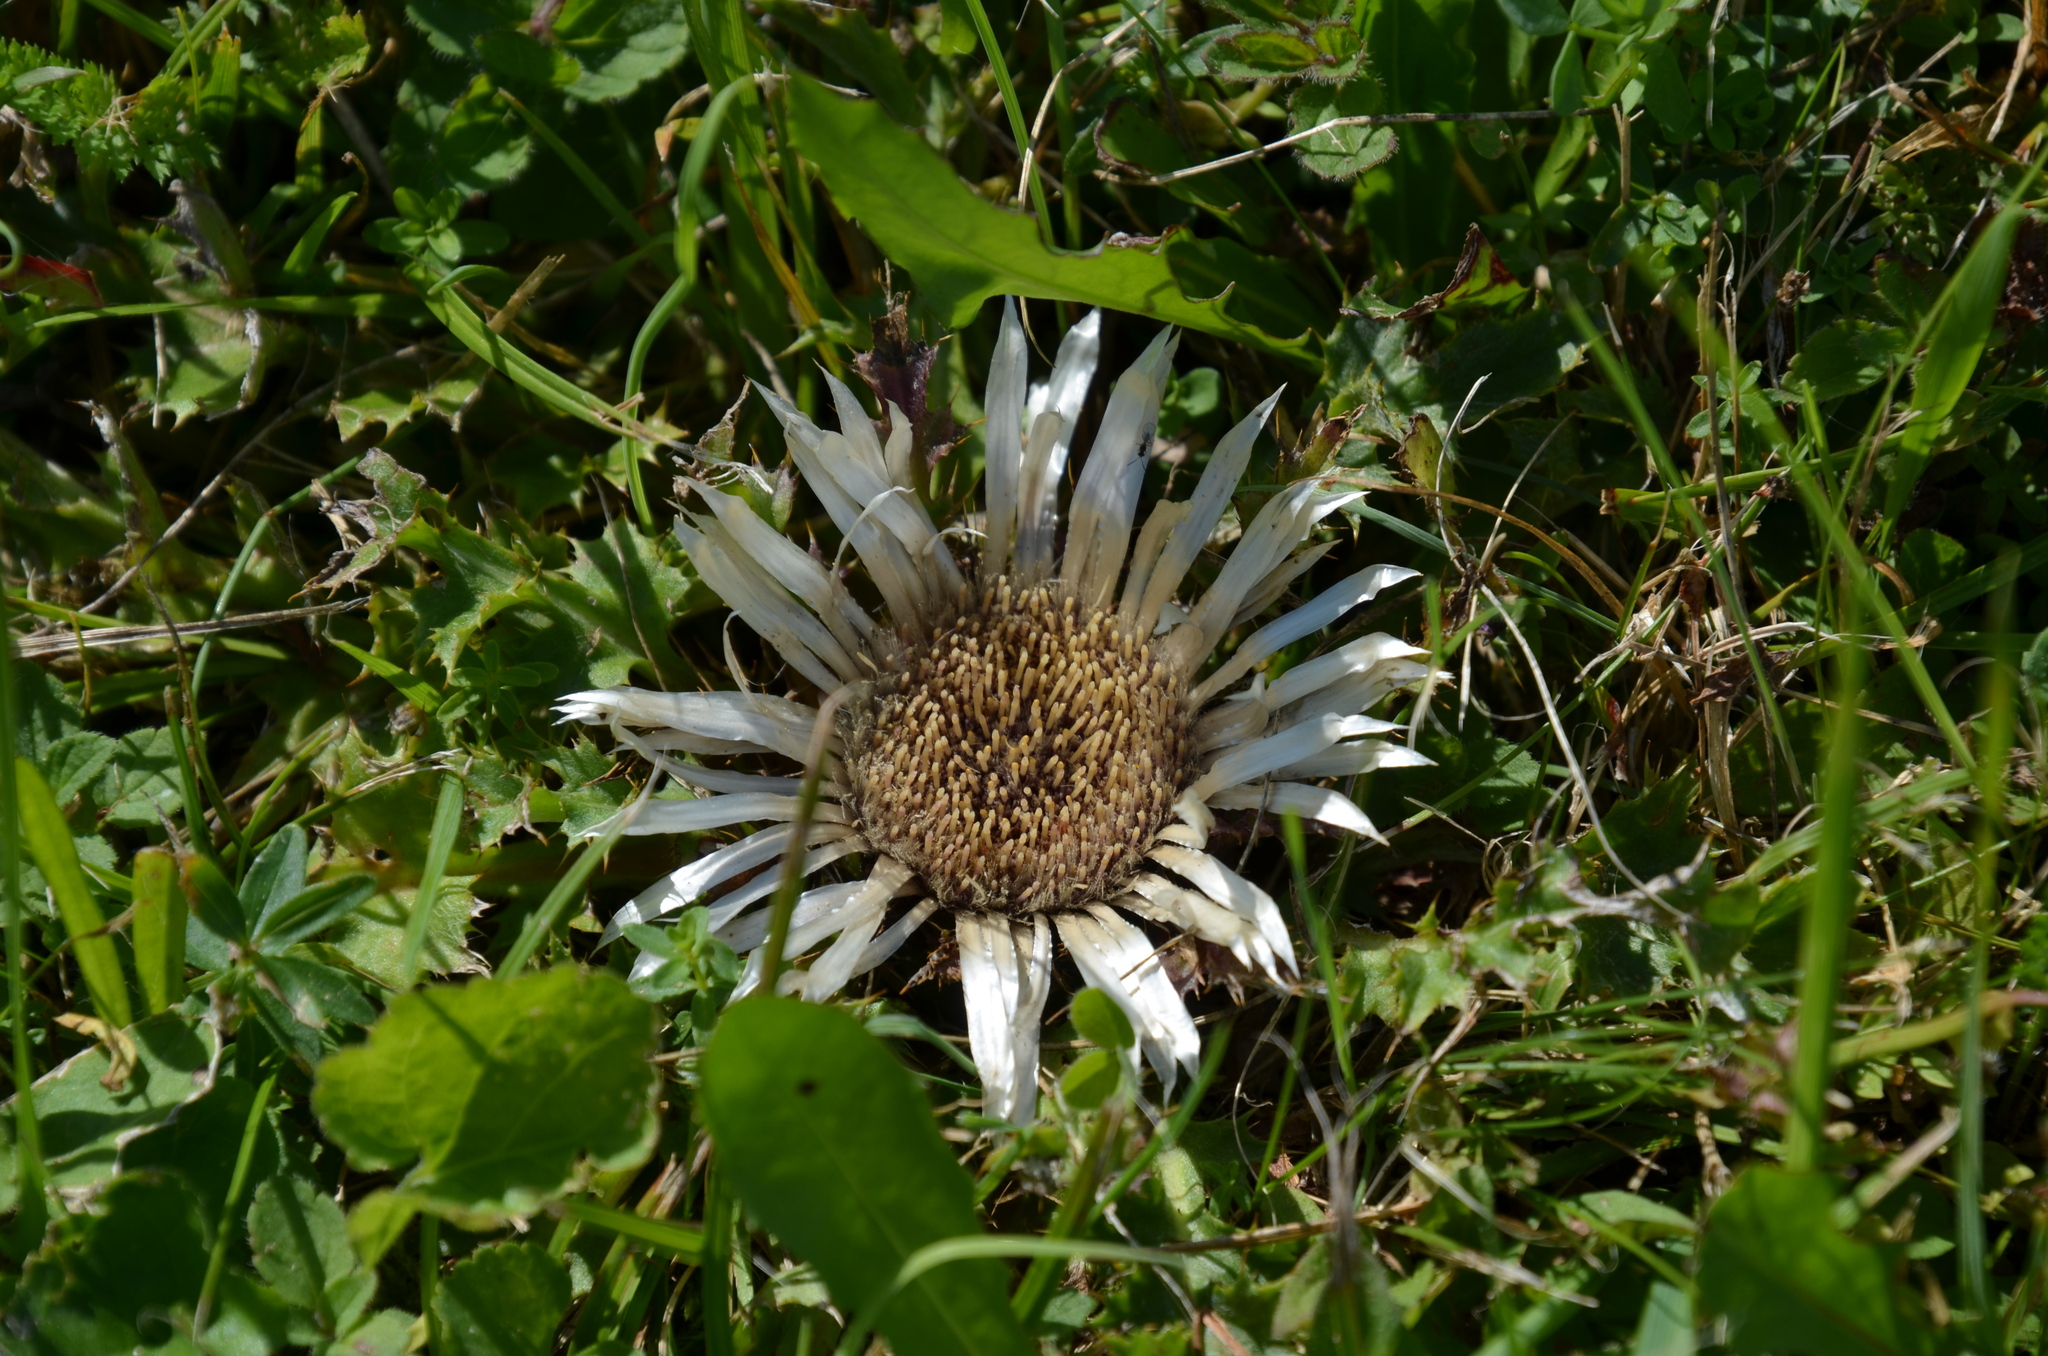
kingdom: Plantae
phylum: Tracheophyta
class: Magnoliopsida
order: Asterales
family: Asteraceae
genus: Carlina
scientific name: Carlina acaulis
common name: Stemless carline thistle
